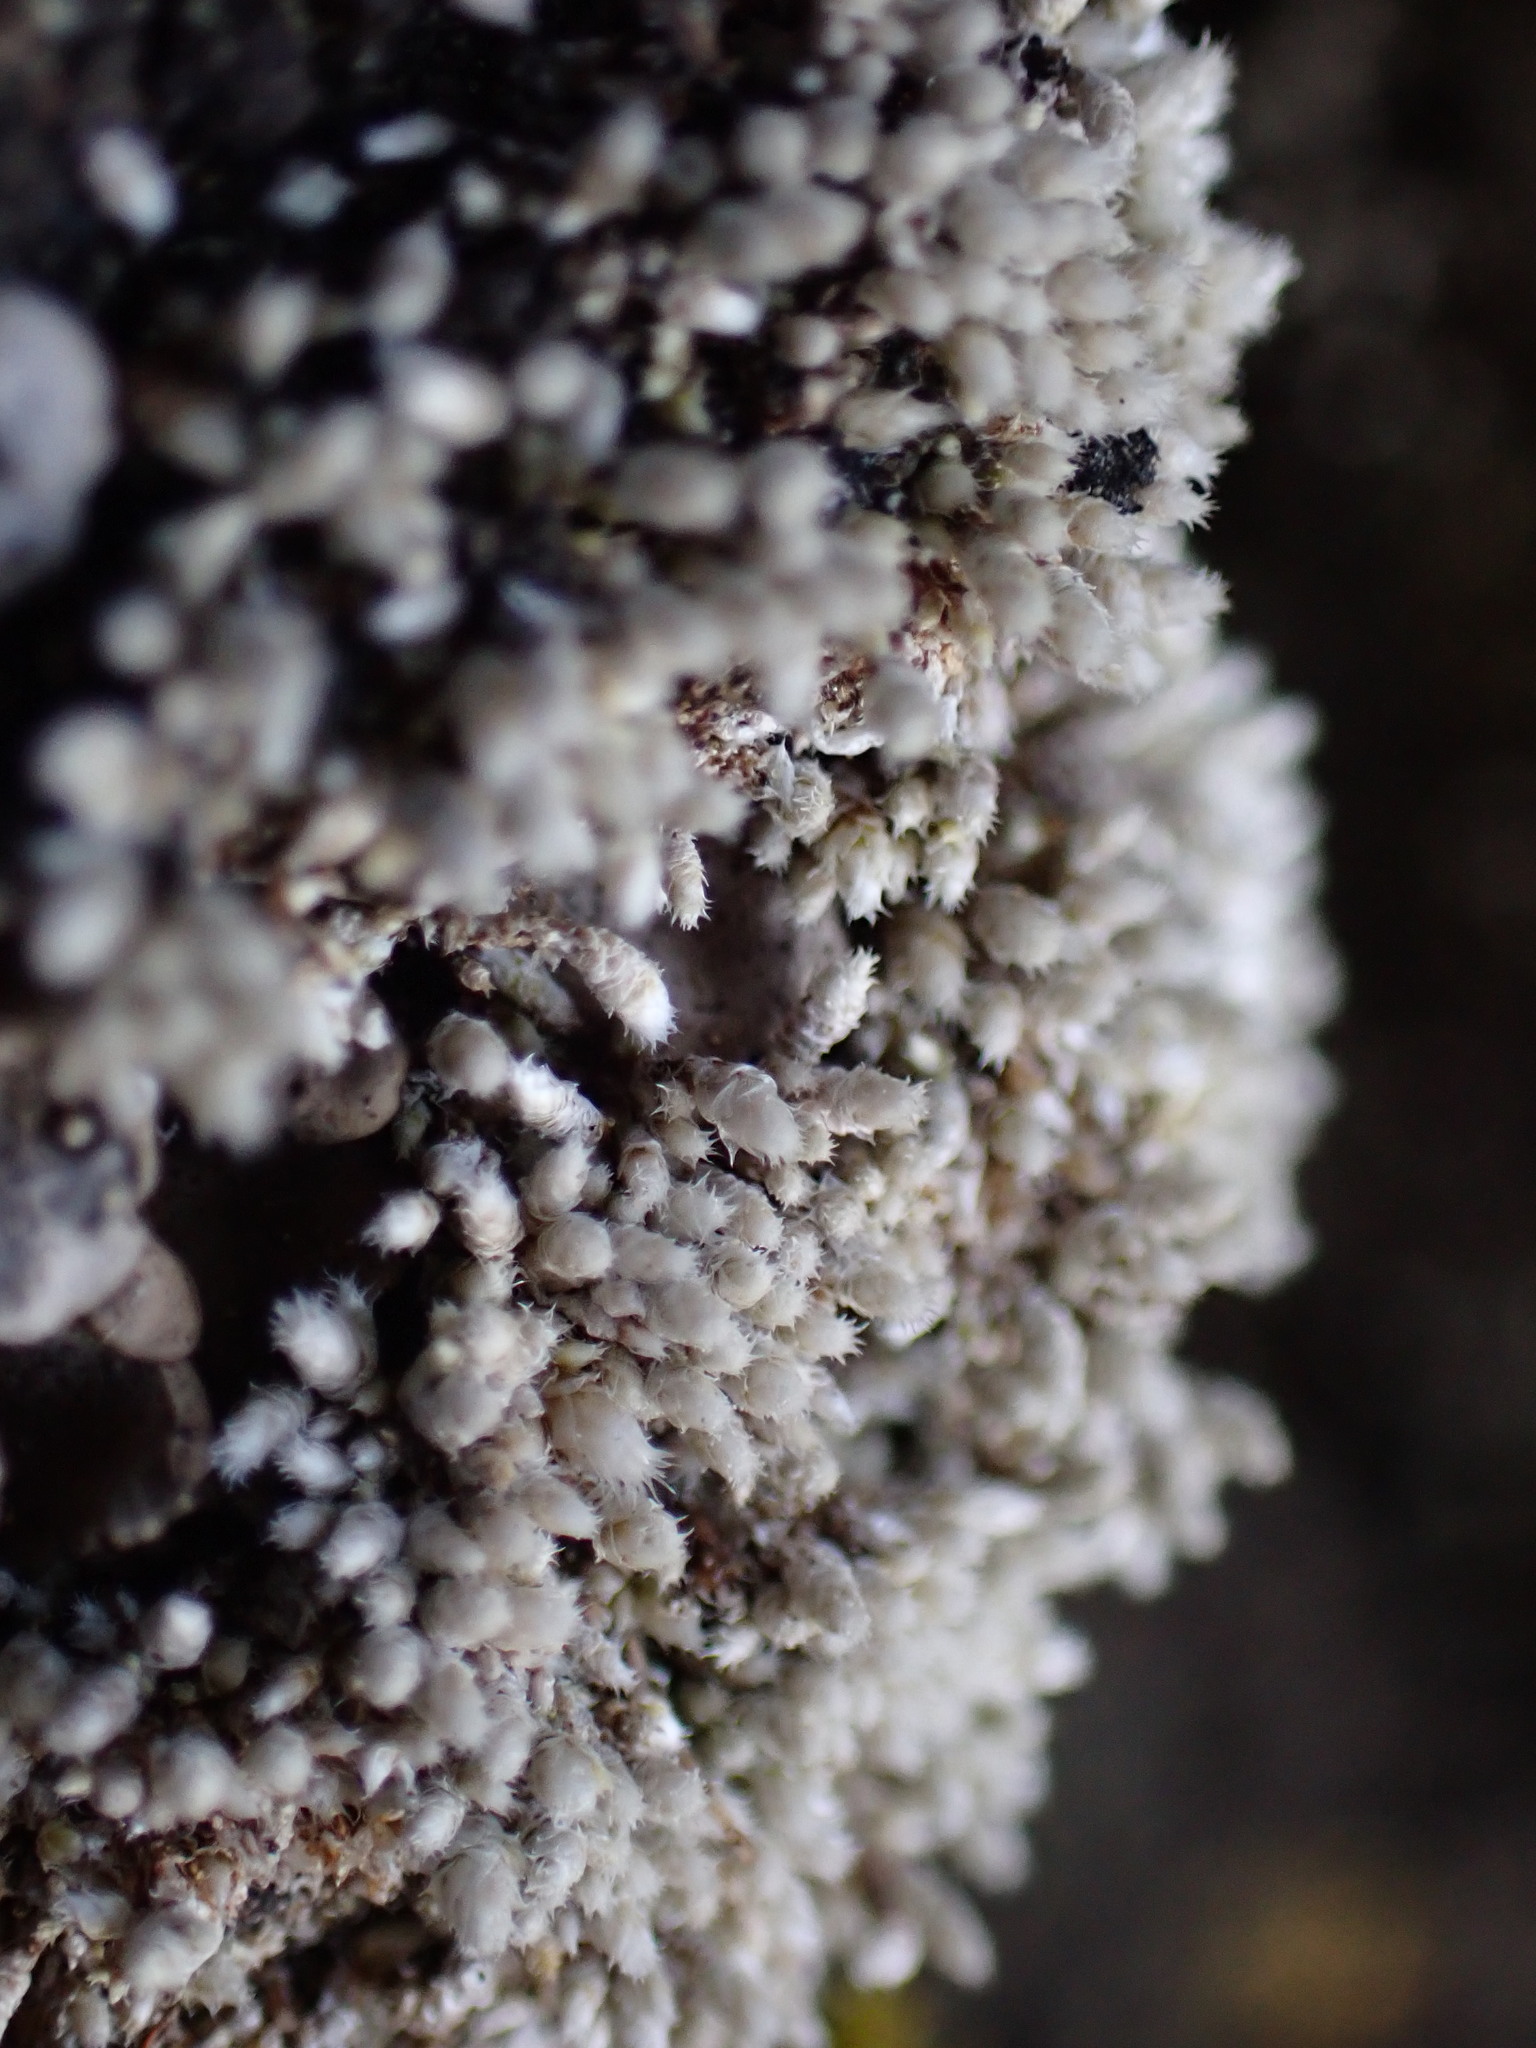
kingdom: Plantae
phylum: Bryophyta
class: Bryopsida
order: Bryales
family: Bryaceae
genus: Bryum
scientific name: Bryum argenteum
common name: Silver-moss
